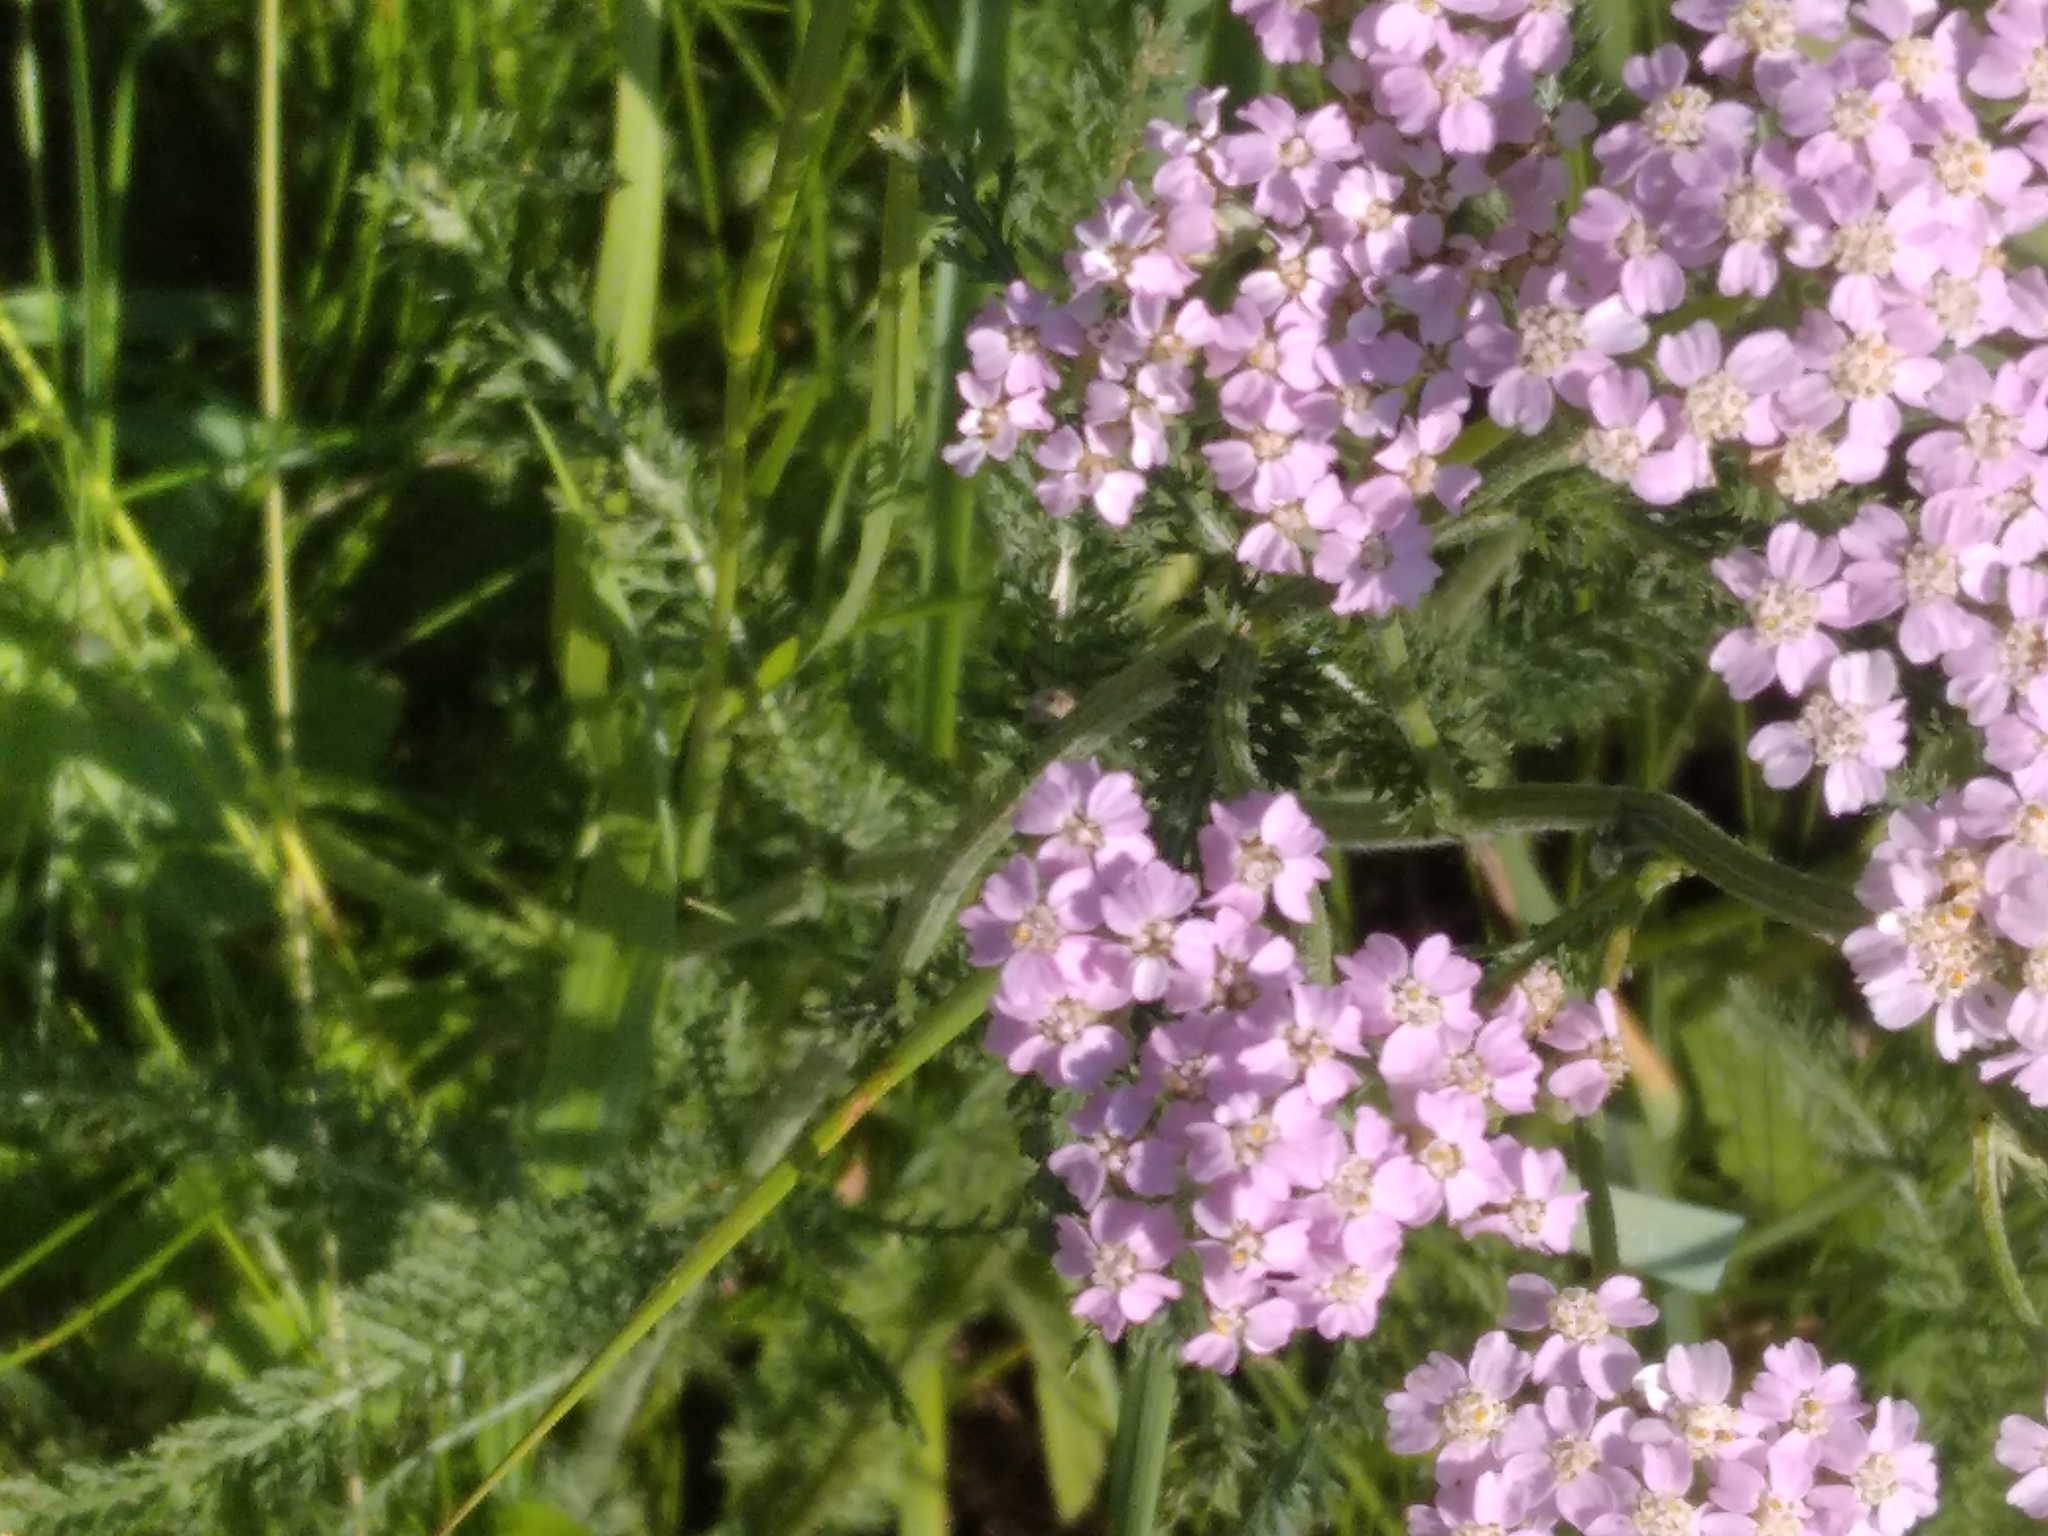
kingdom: Plantae
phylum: Tracheophyta
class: Magnoliopsida
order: Asterales
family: Asteraceae
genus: Achillea
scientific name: Achillea millefolium
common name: Yarrow
